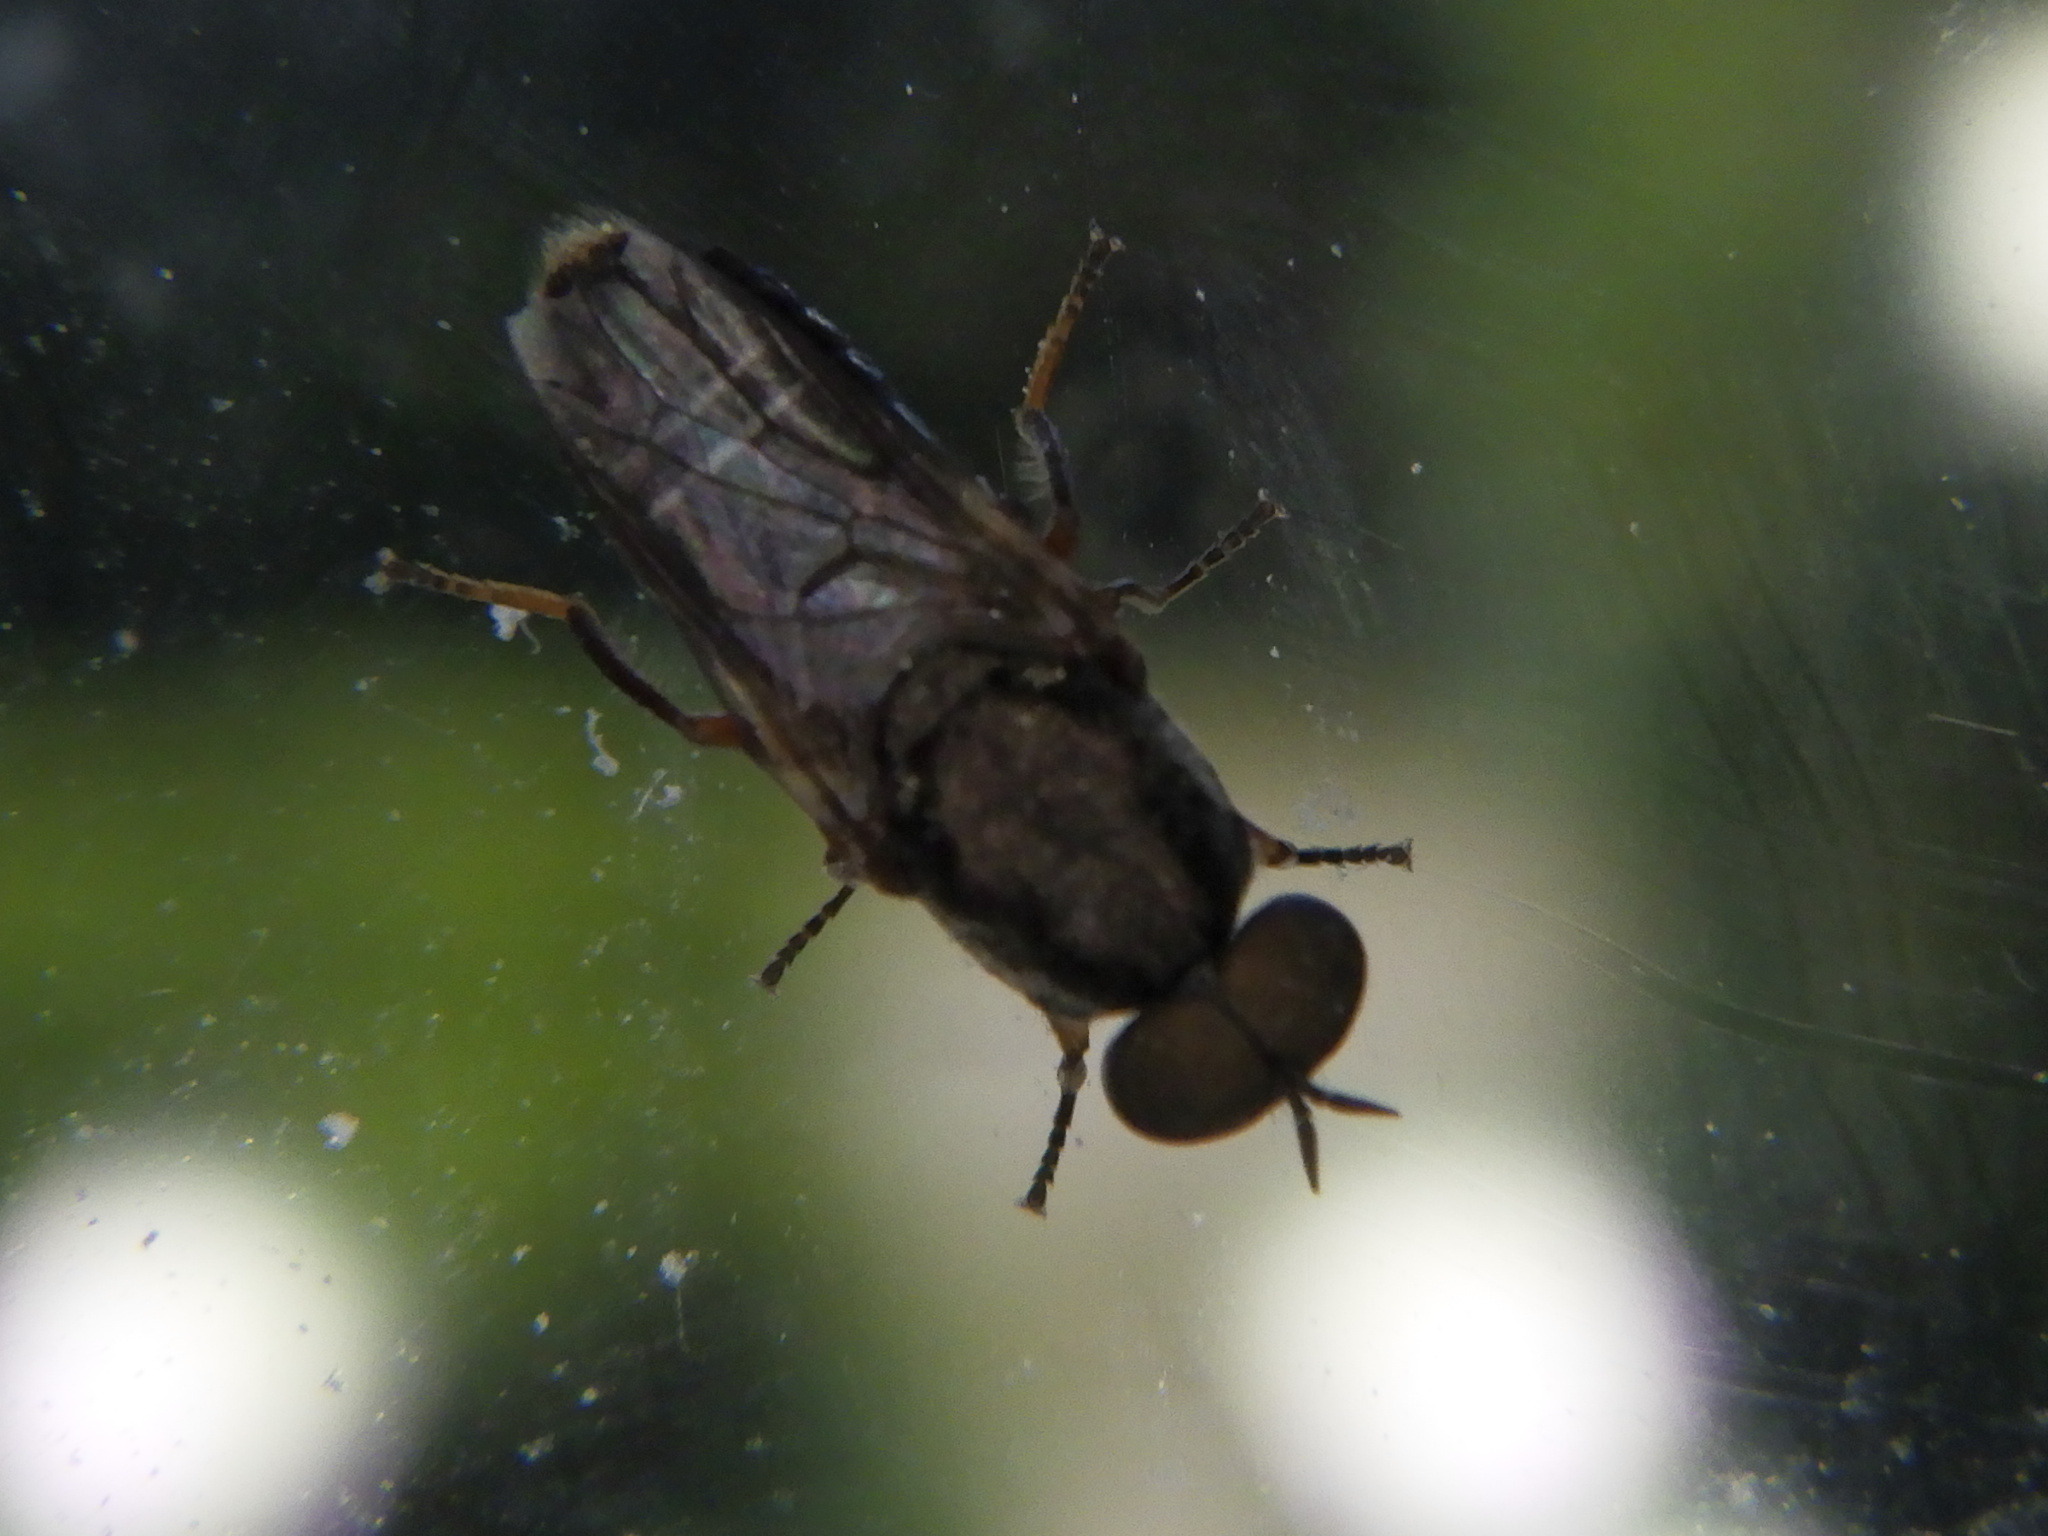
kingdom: Animalia
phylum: Arthropoda
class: Insecta
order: Diptera
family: Scenopinidae
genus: Scenopinus
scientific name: Scenopinus
